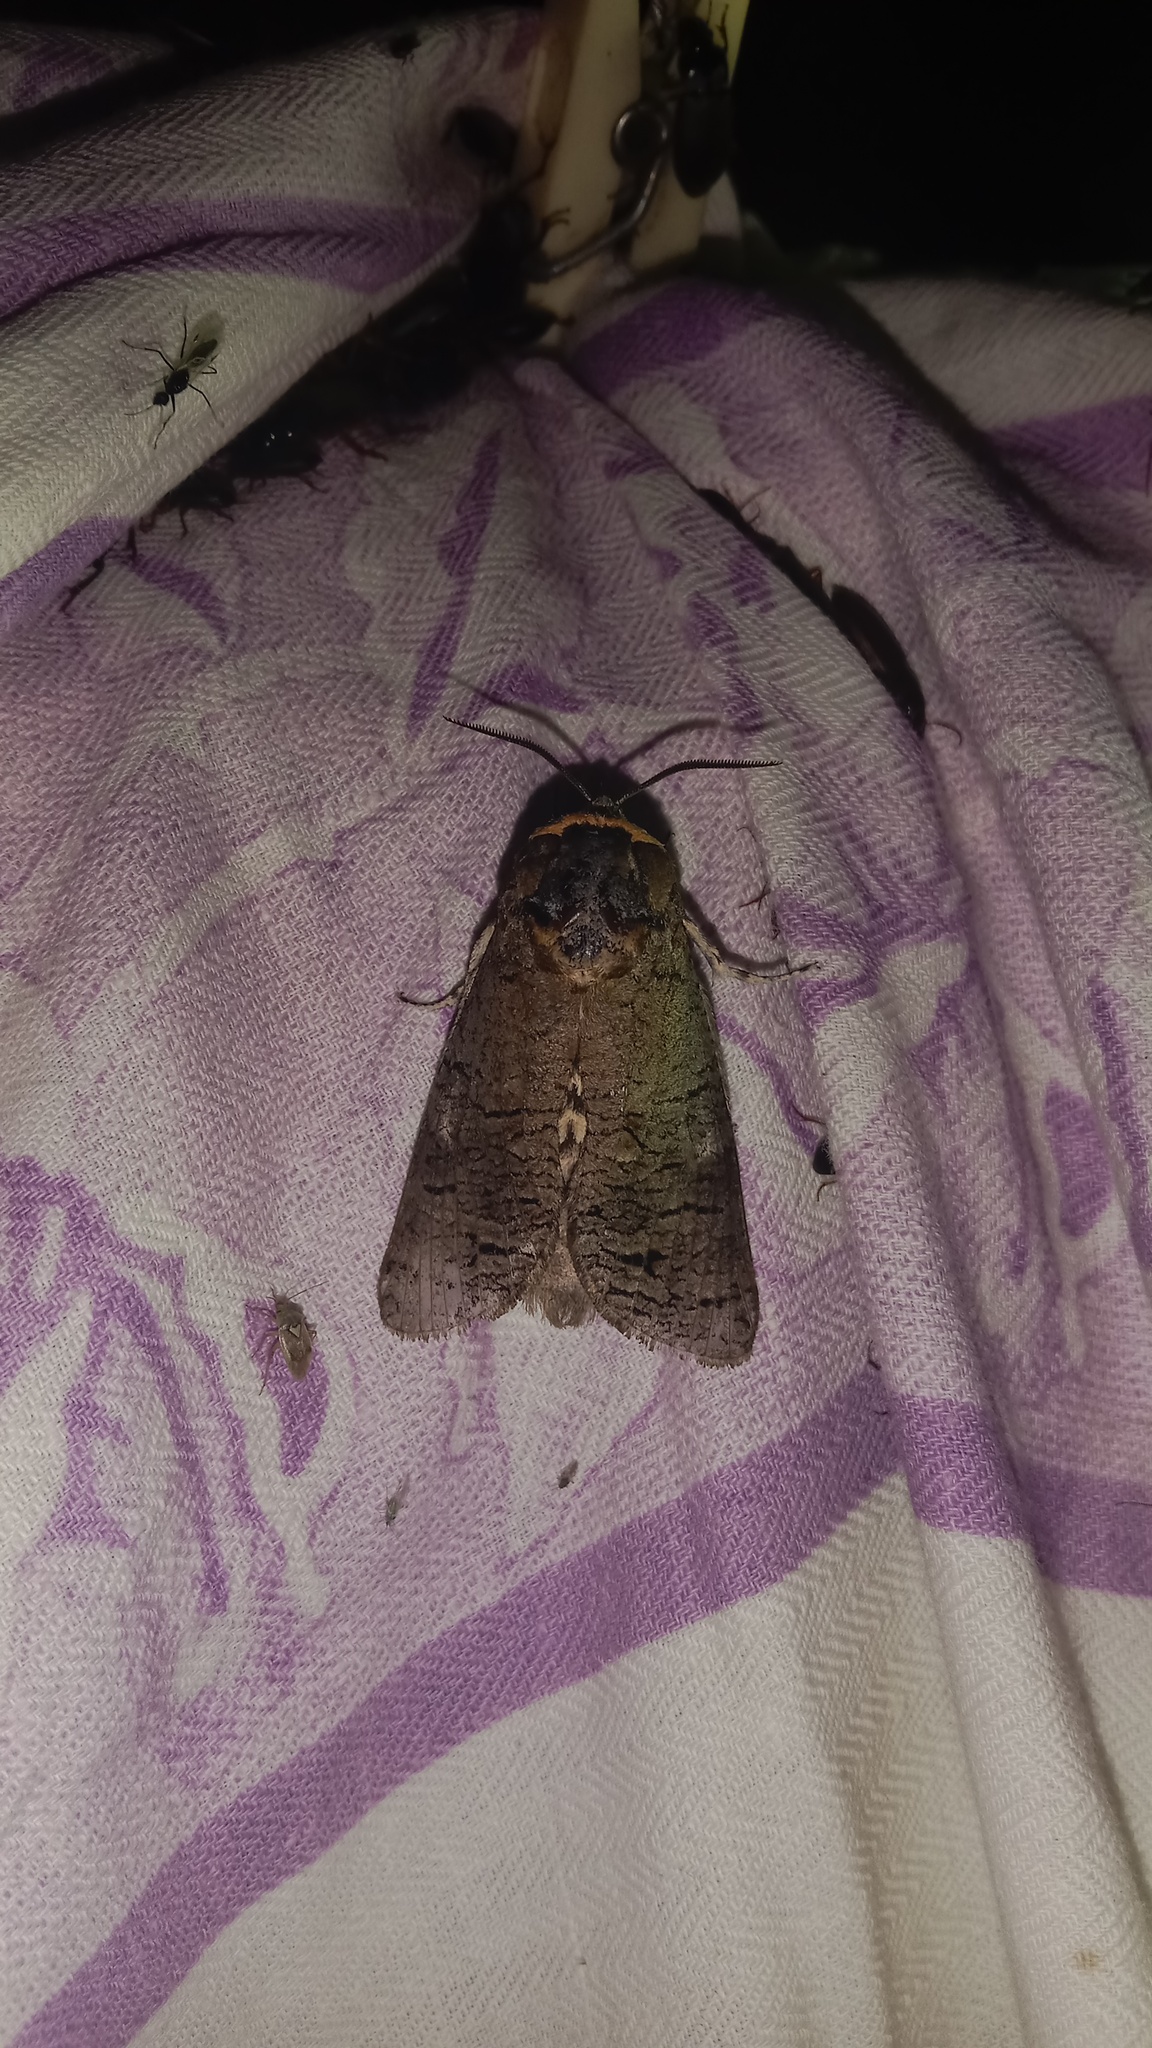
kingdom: Animalia
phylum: Arthropoda
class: Insecta
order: Lepidoptera
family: Cossidae
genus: Cossus
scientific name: Cossus cossus
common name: Goat moth
